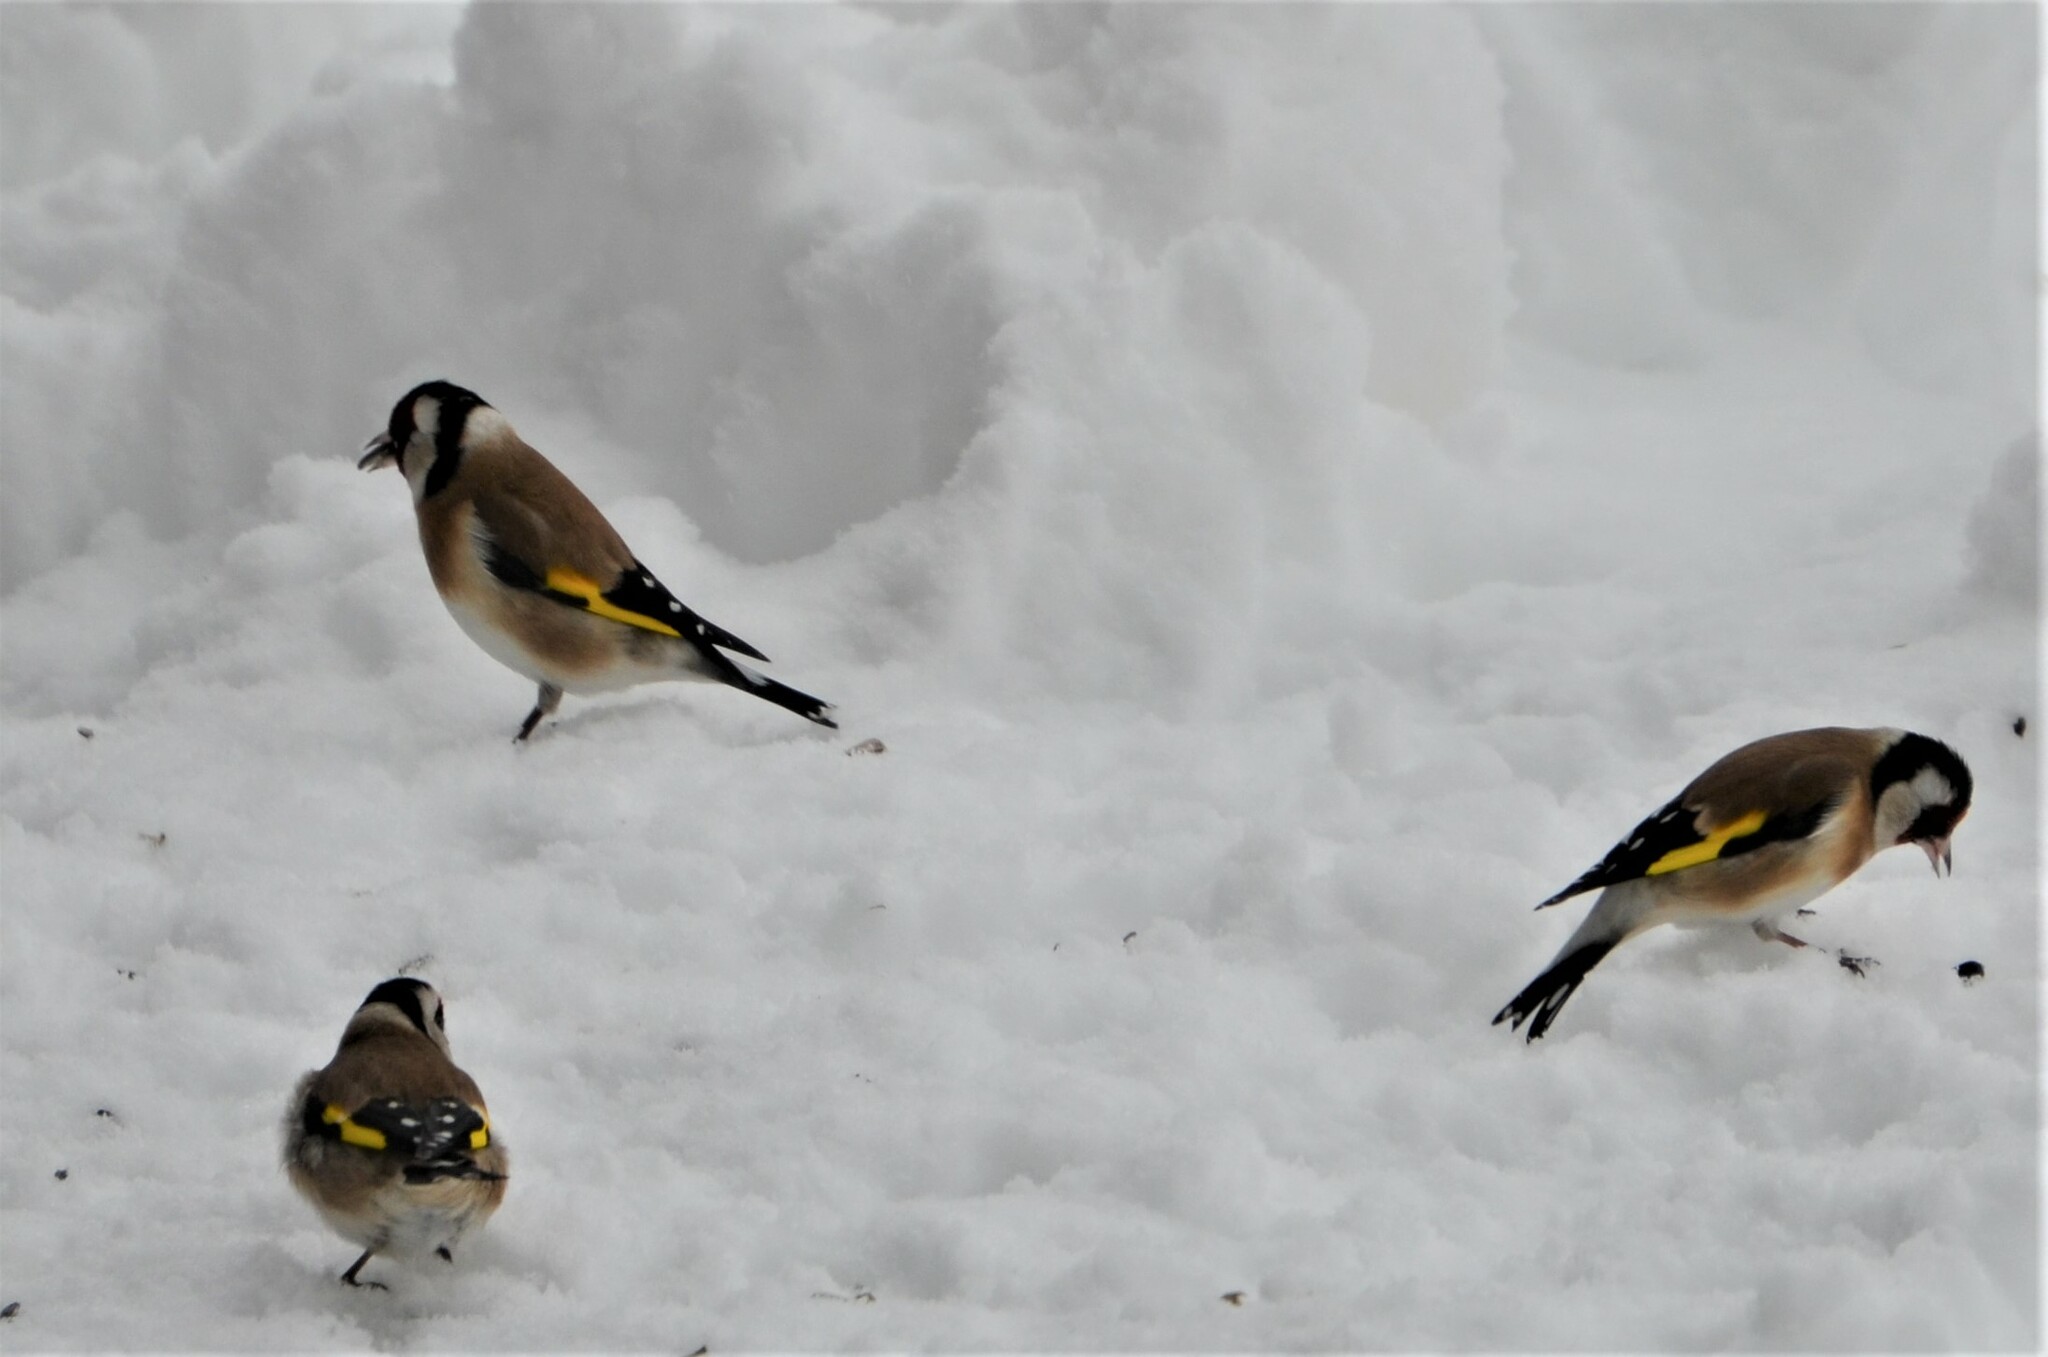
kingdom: Animalia
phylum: Chordata
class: Aves
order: Passeriformes
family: Fringillidae
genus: Carduelis
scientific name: Carduelis carduelis
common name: European goldfinch
